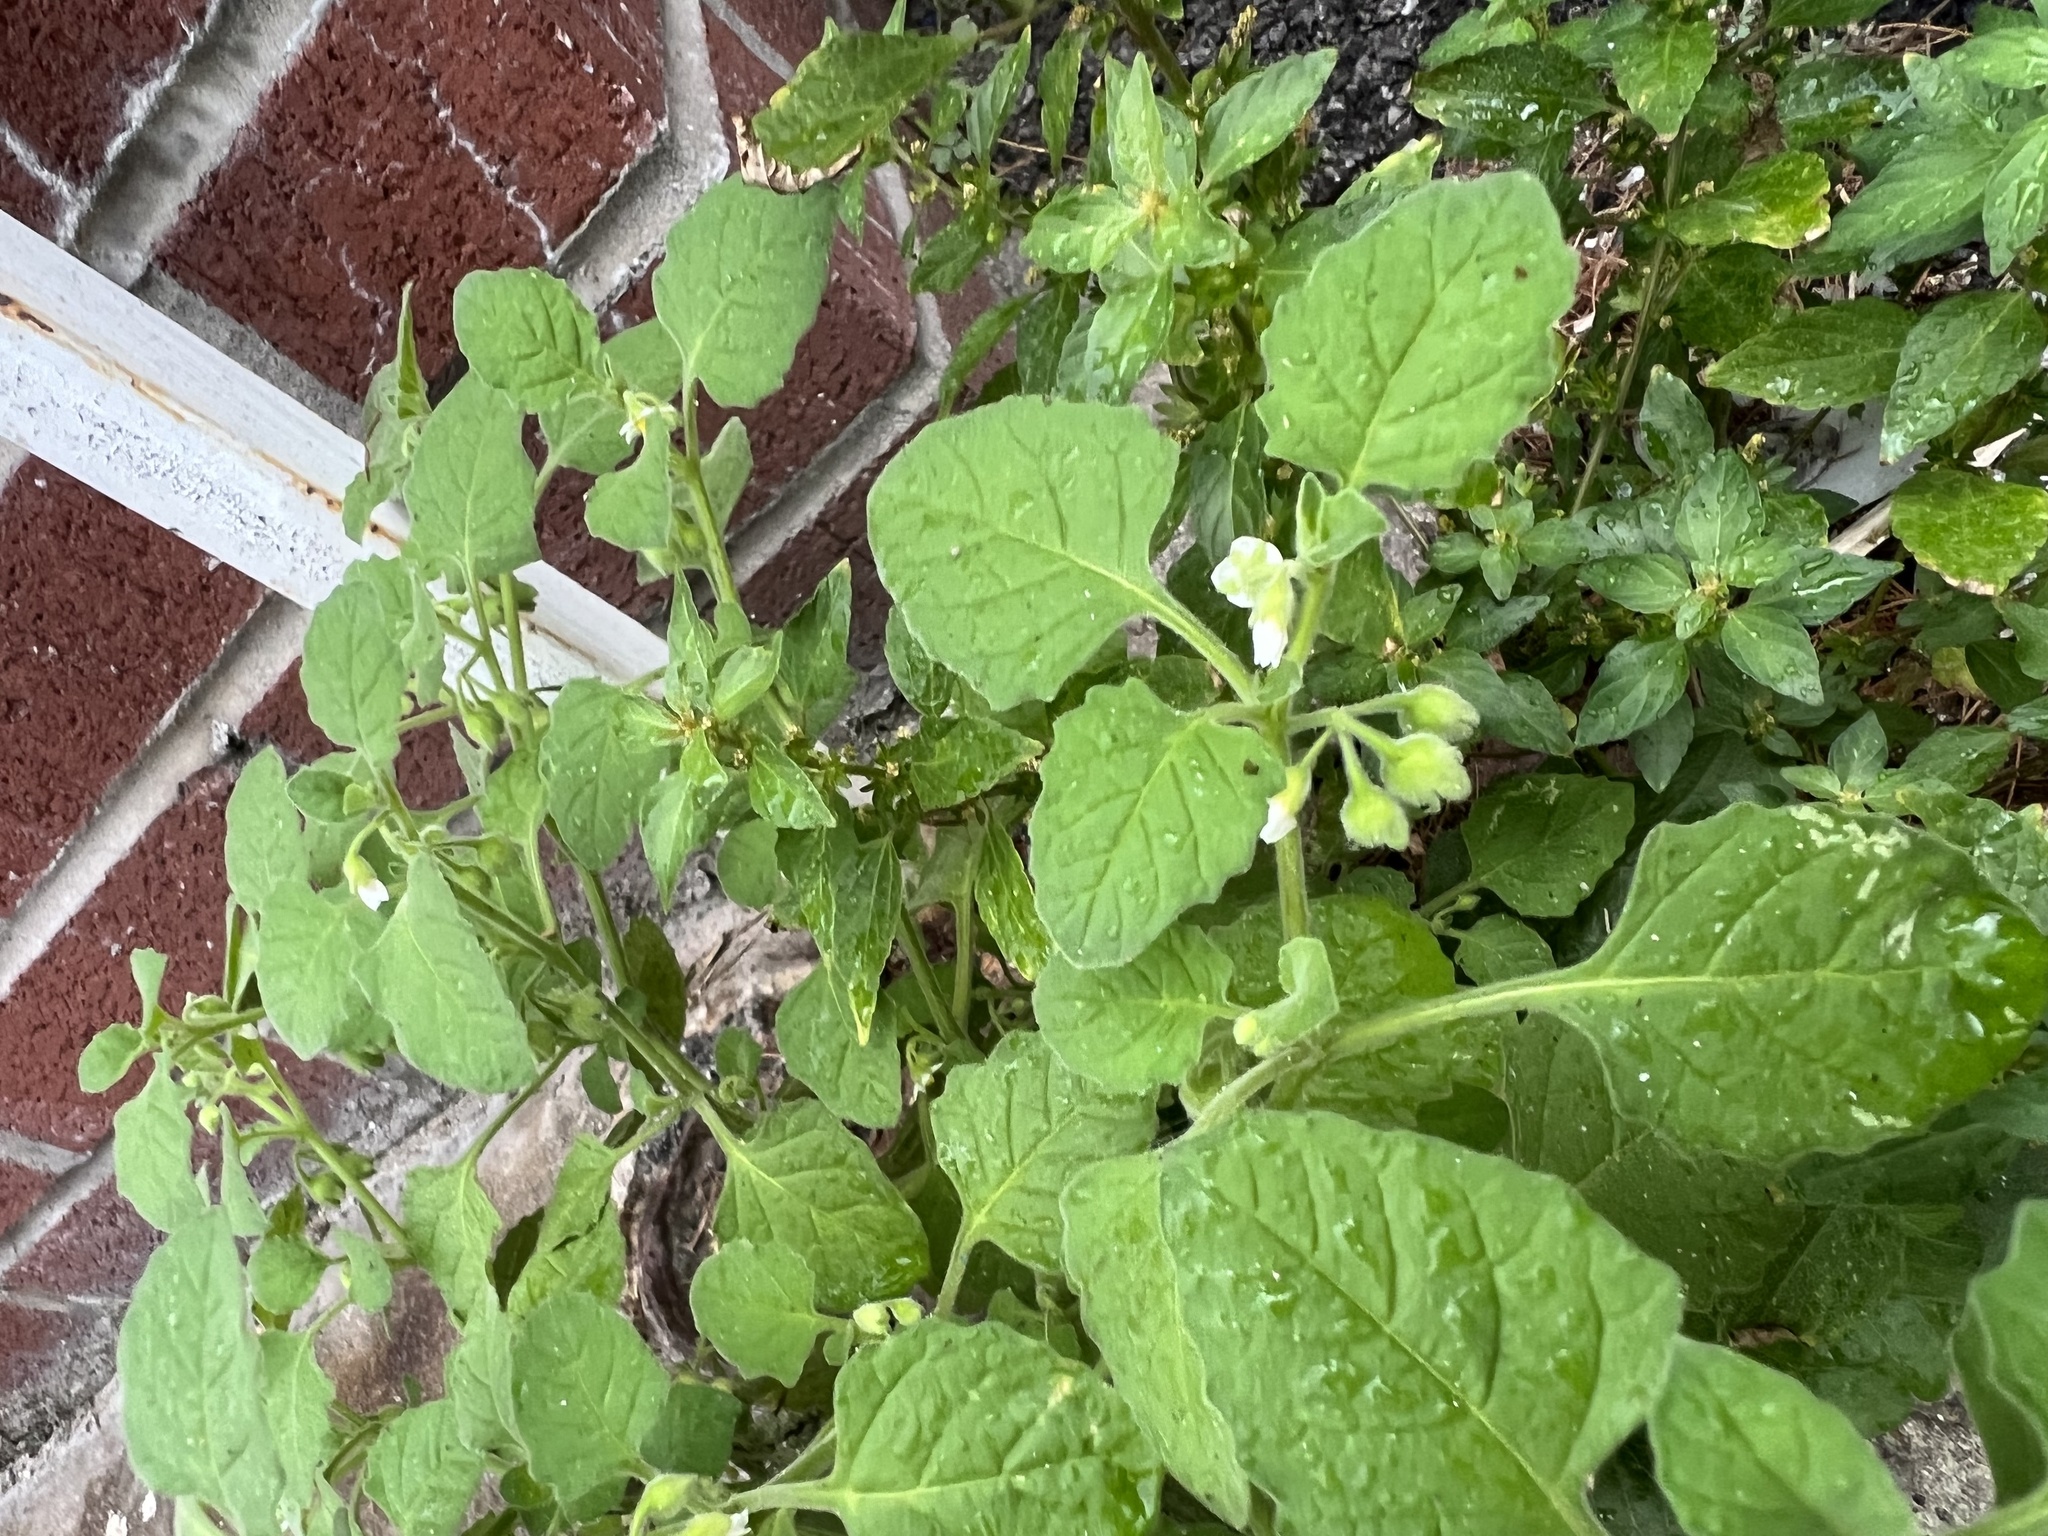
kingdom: Plantae
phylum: Tracheophyta
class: Magnoliopsida
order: Solanales
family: Solanaceae
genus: Solanum
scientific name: Solanum sarrachoides
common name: Leafy-fruited nightshade
